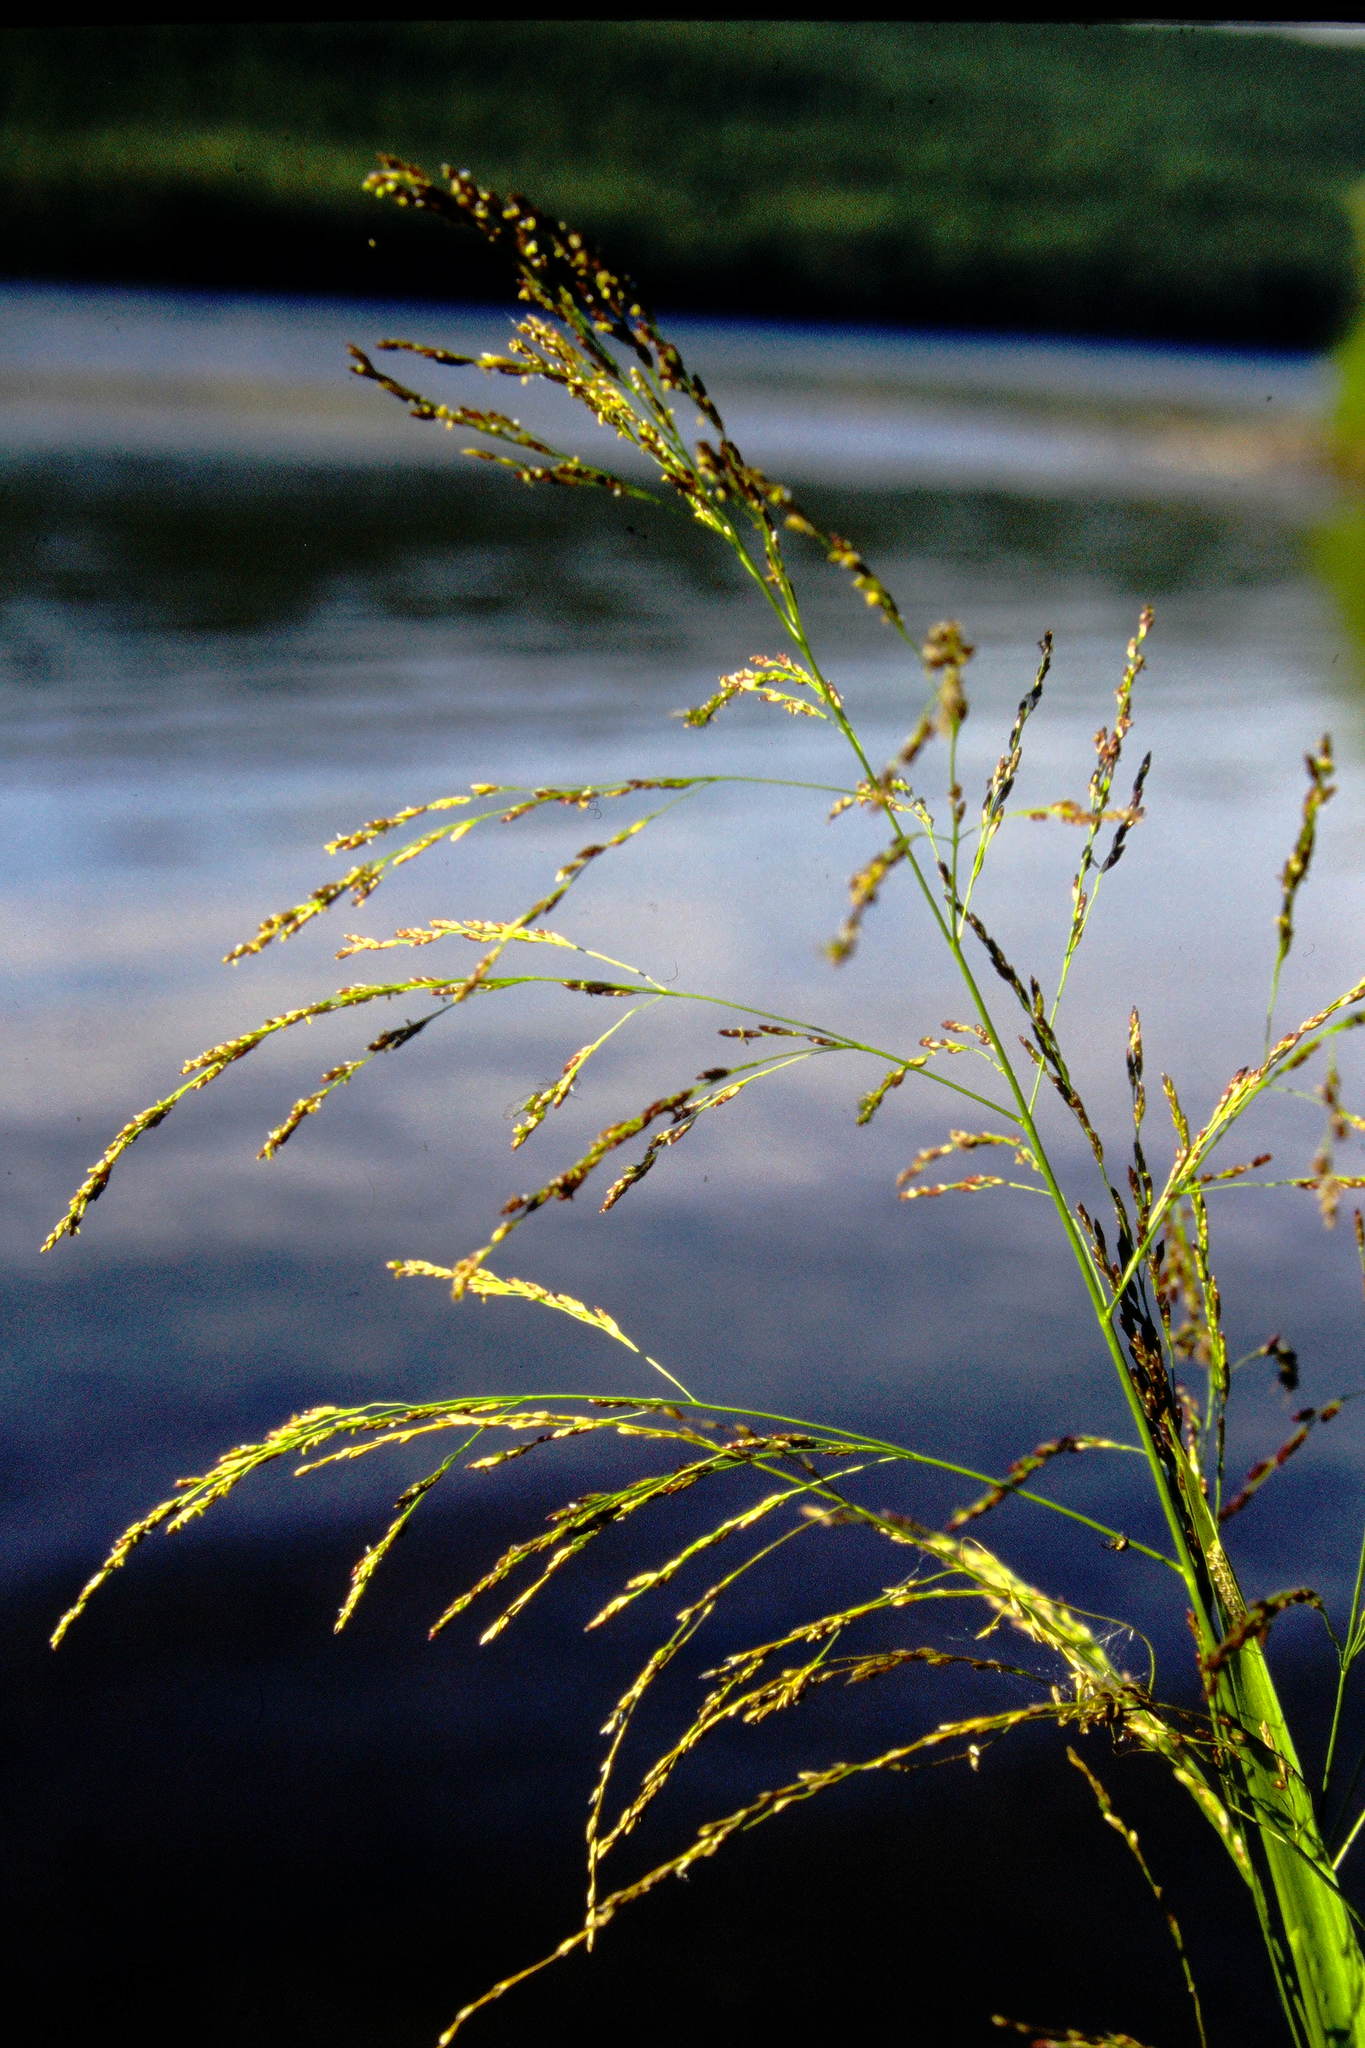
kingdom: Plantae
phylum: Tracheophyta
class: Liliopsida
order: Poales
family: Poaceae
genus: Glyceria
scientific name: Glyceria grandis
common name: American glyceria
